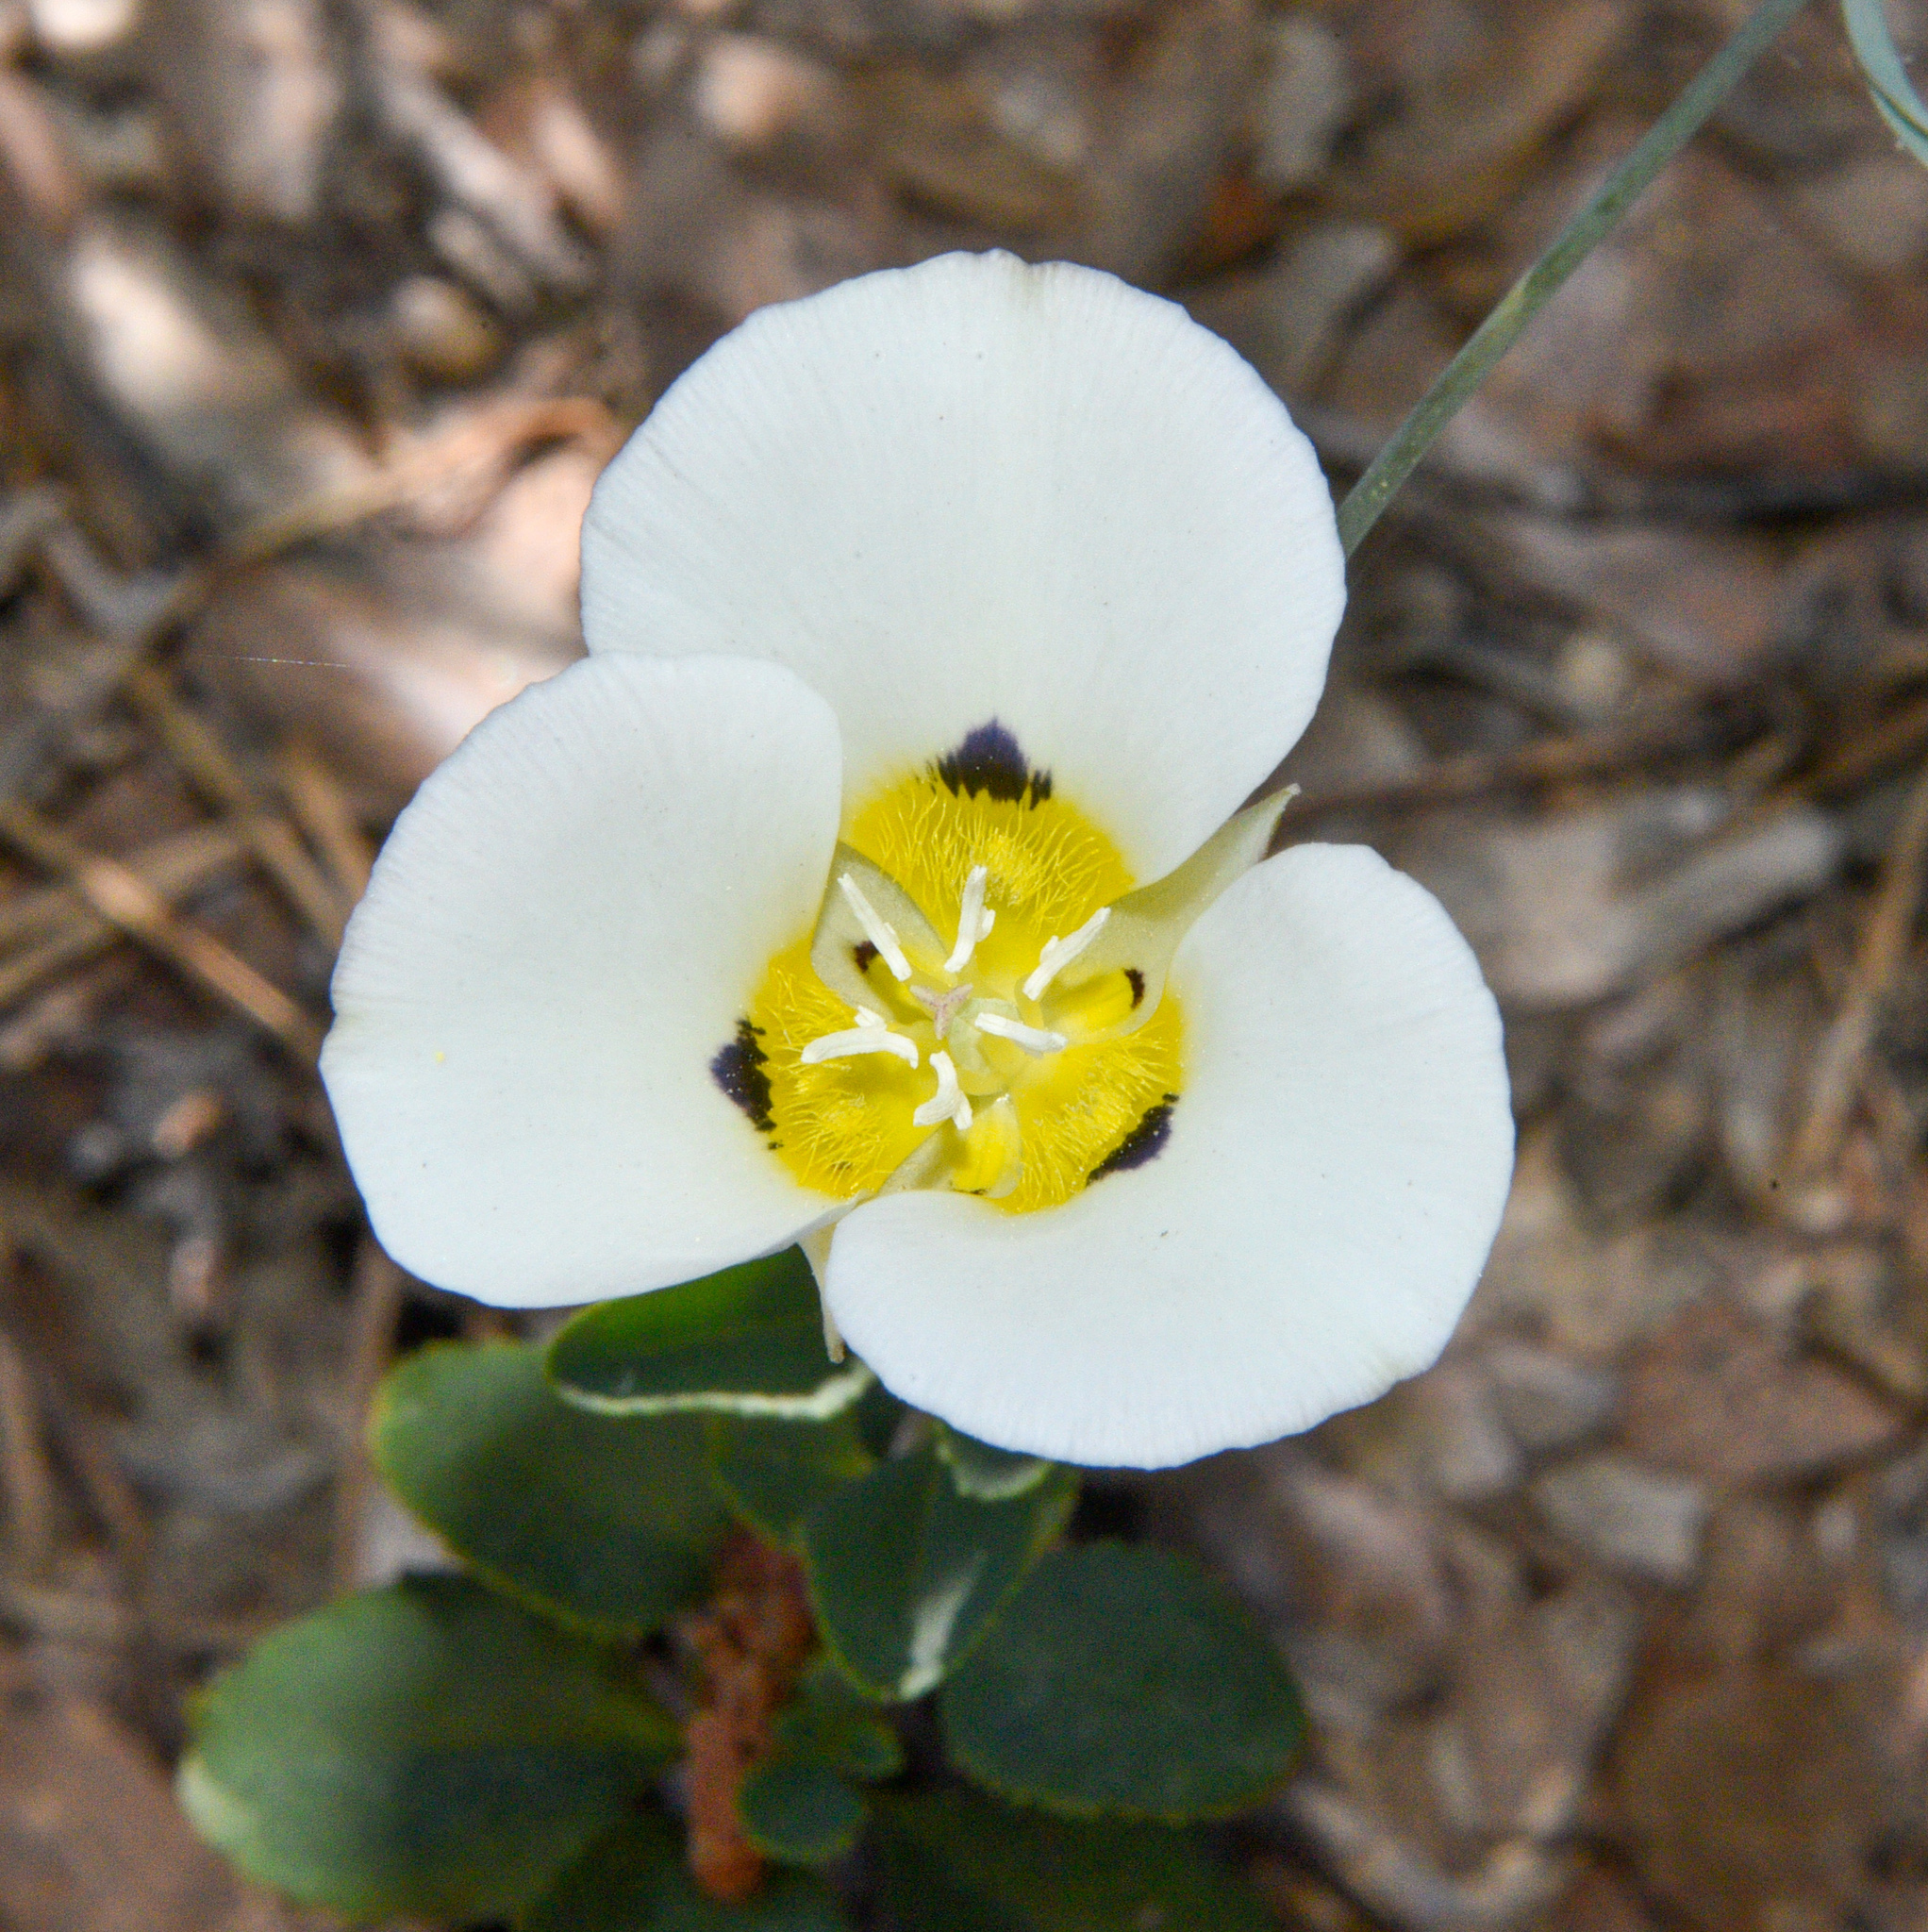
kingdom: Plantae
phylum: Tracheophyta
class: Liliopsida
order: Liliales
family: Liliaceae
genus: Calochortus
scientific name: Calochortus leichtlinii
